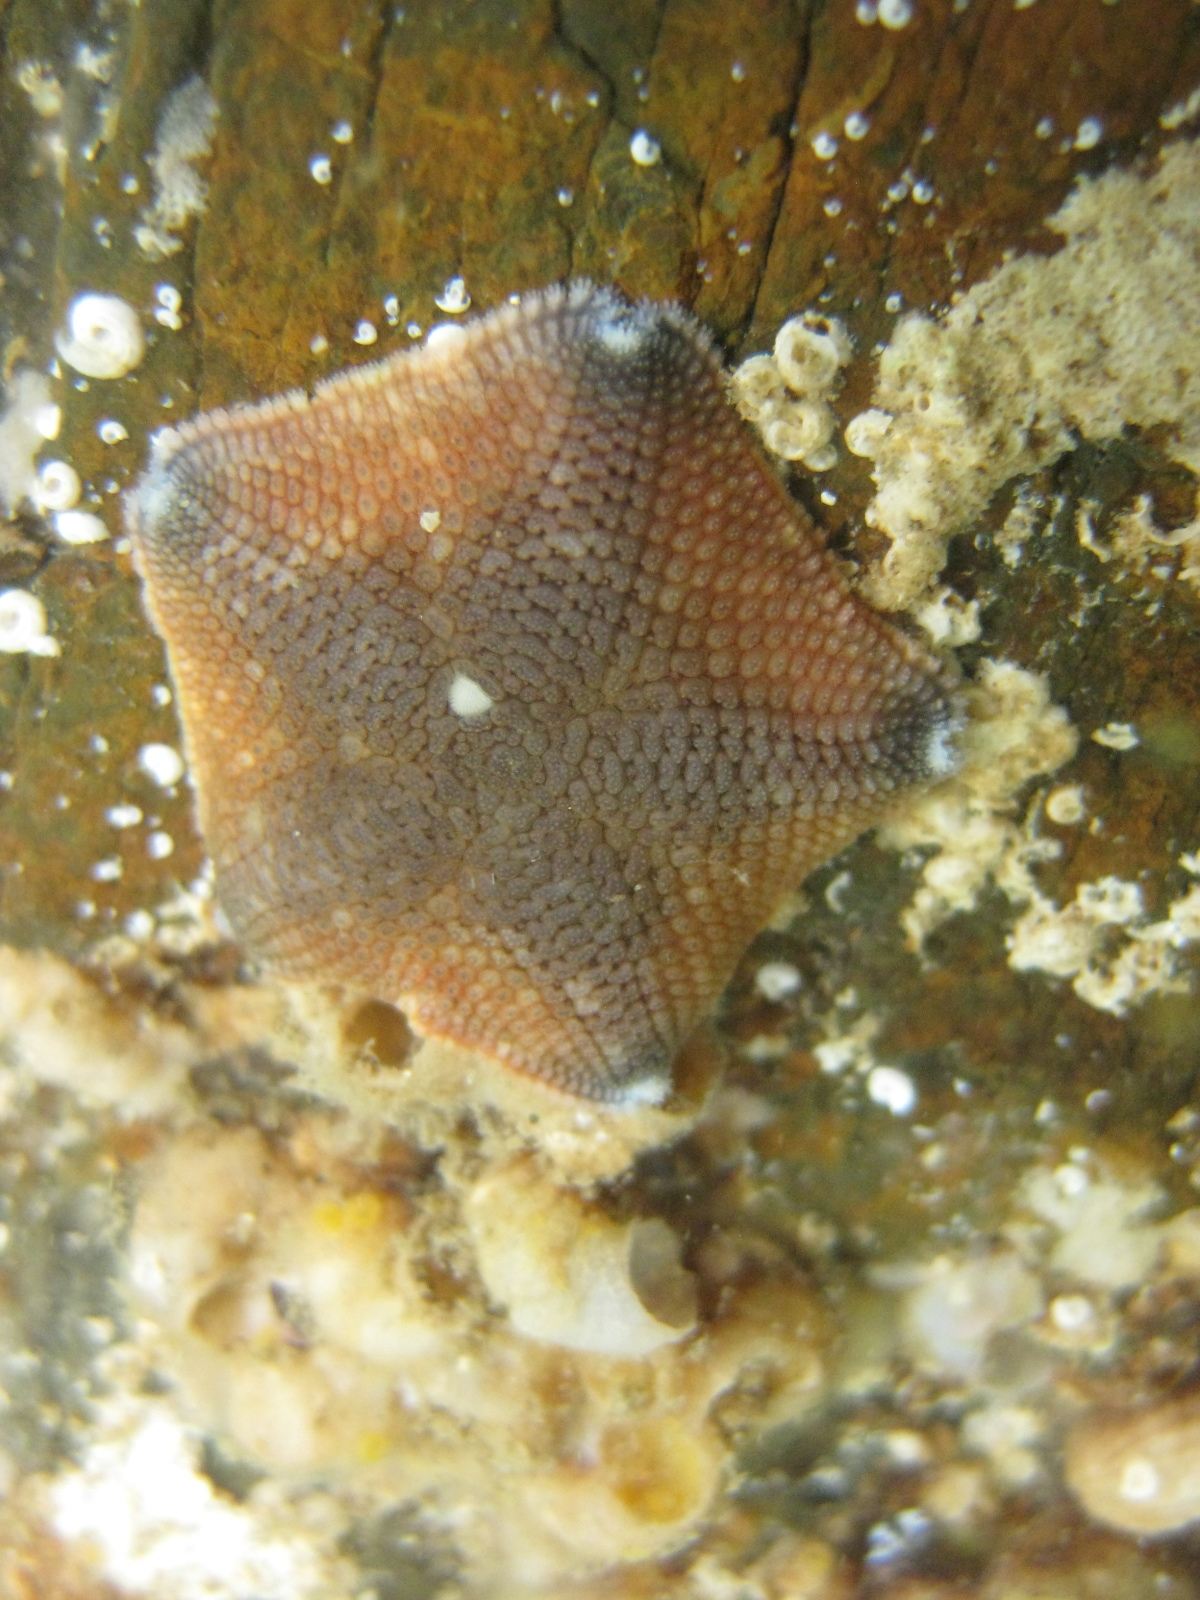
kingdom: Animalia
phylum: Echinodermata
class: Asteroidea
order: Valvatida
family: Asterinidae
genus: Patiriella
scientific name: Patiriella regularis
